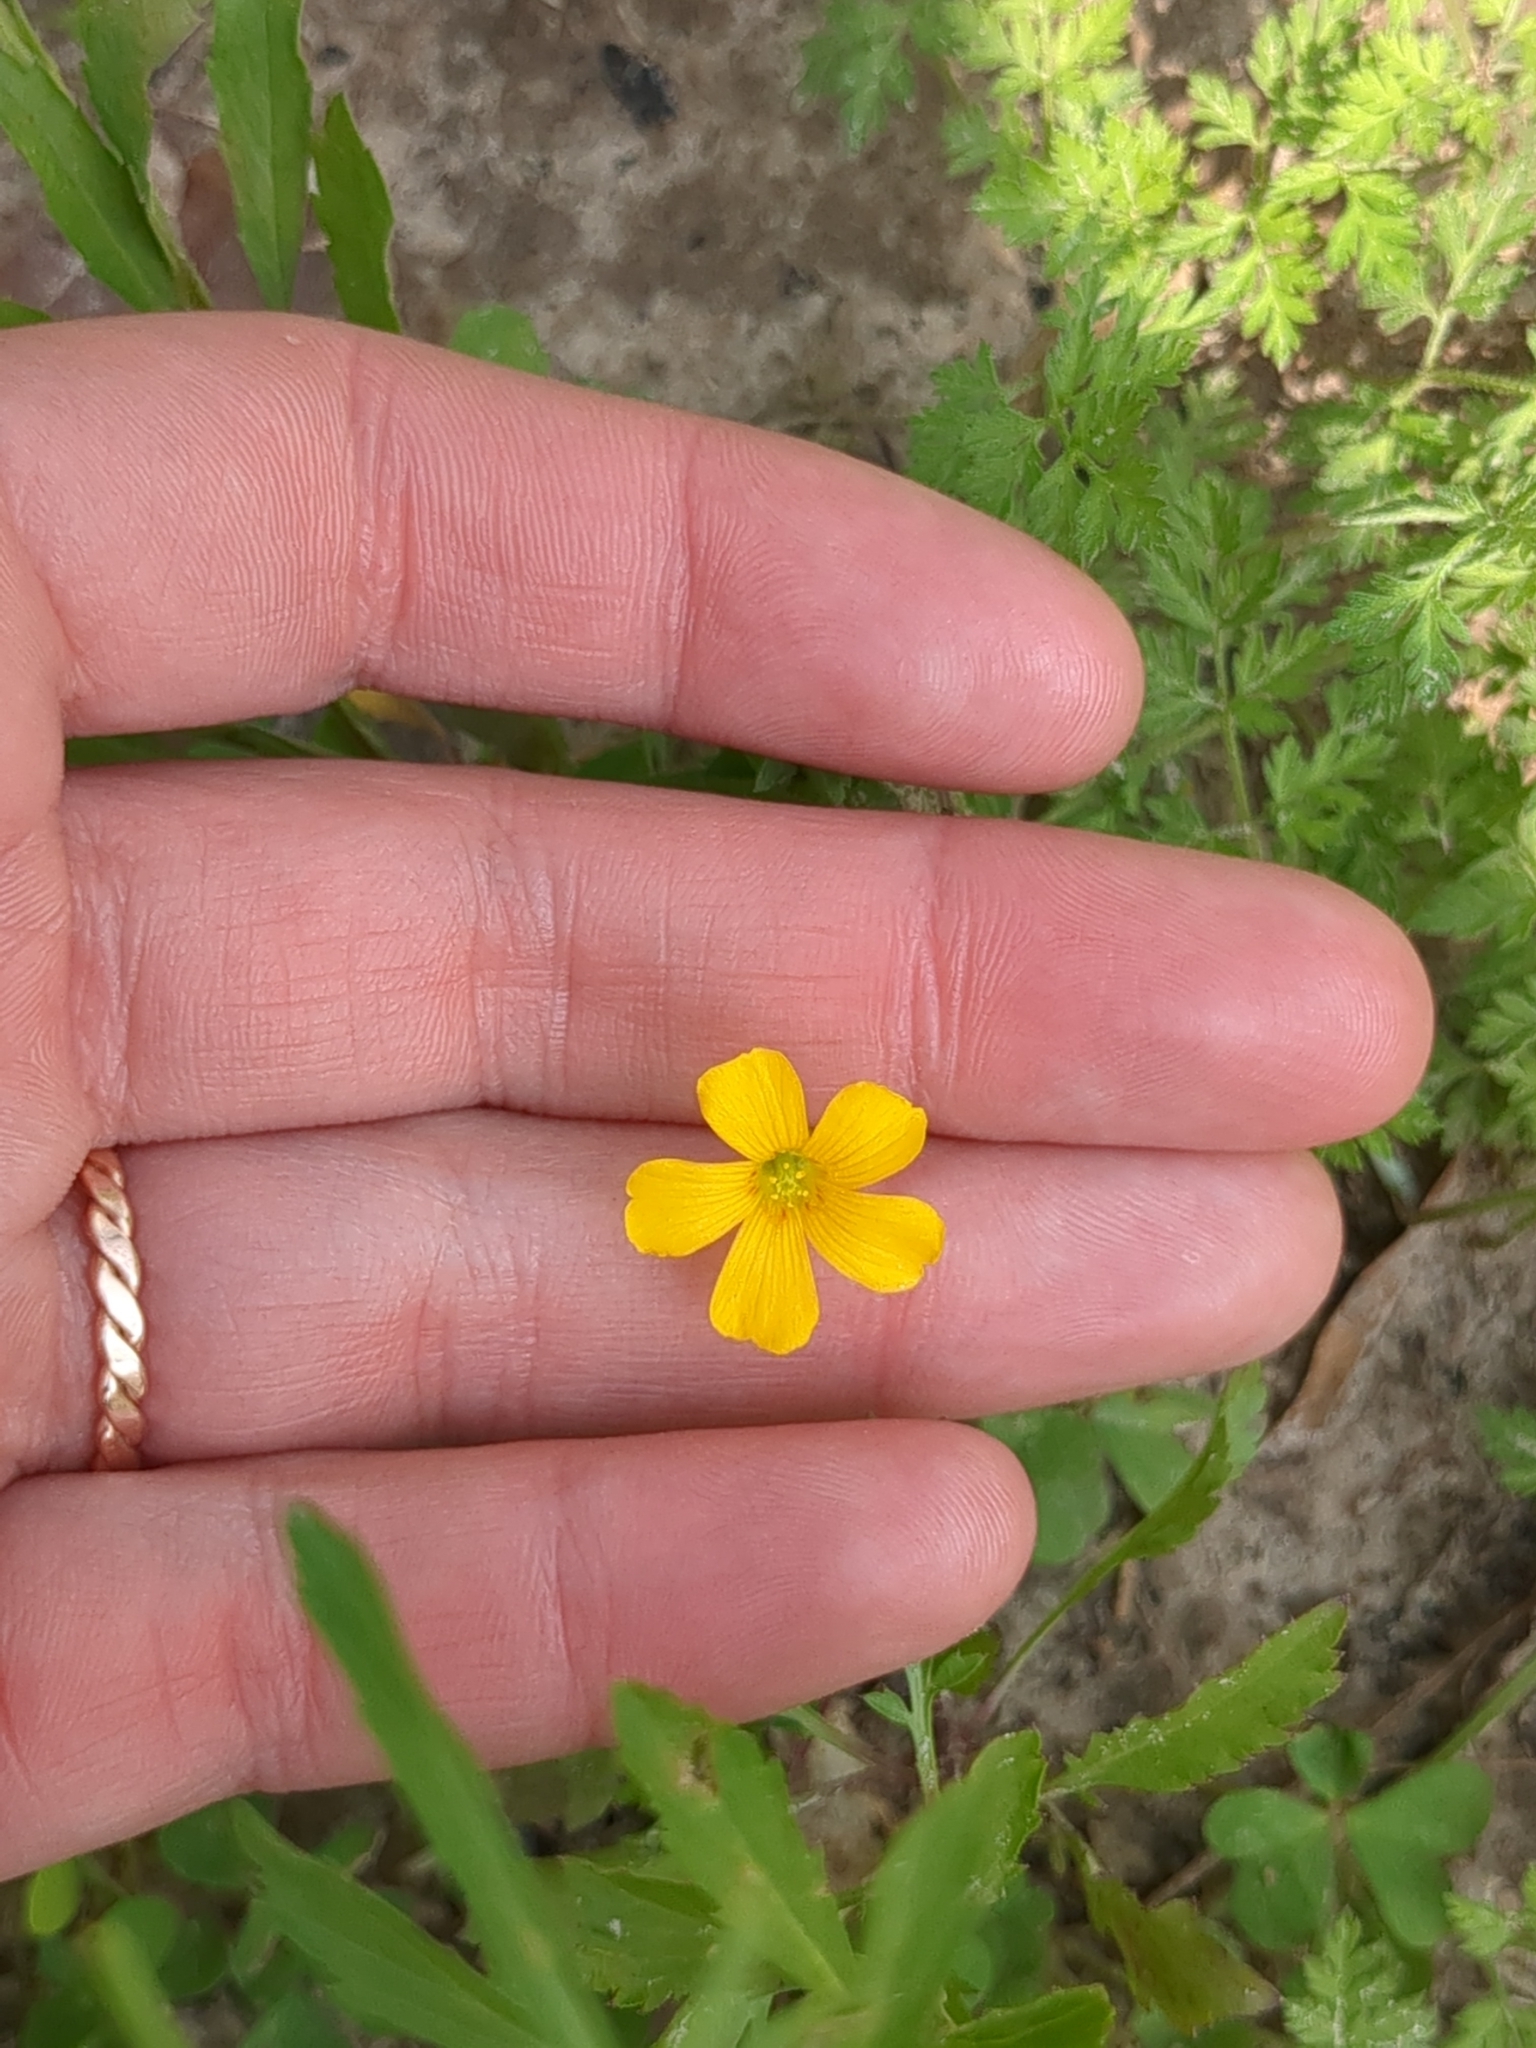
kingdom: Plantae
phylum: Tracheophyta
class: Magnoliopsida
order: Oxalidales
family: Oxalidaceae
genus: Oxalis
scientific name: Oxalis dillenii
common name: Sussex yellow-sorrel
